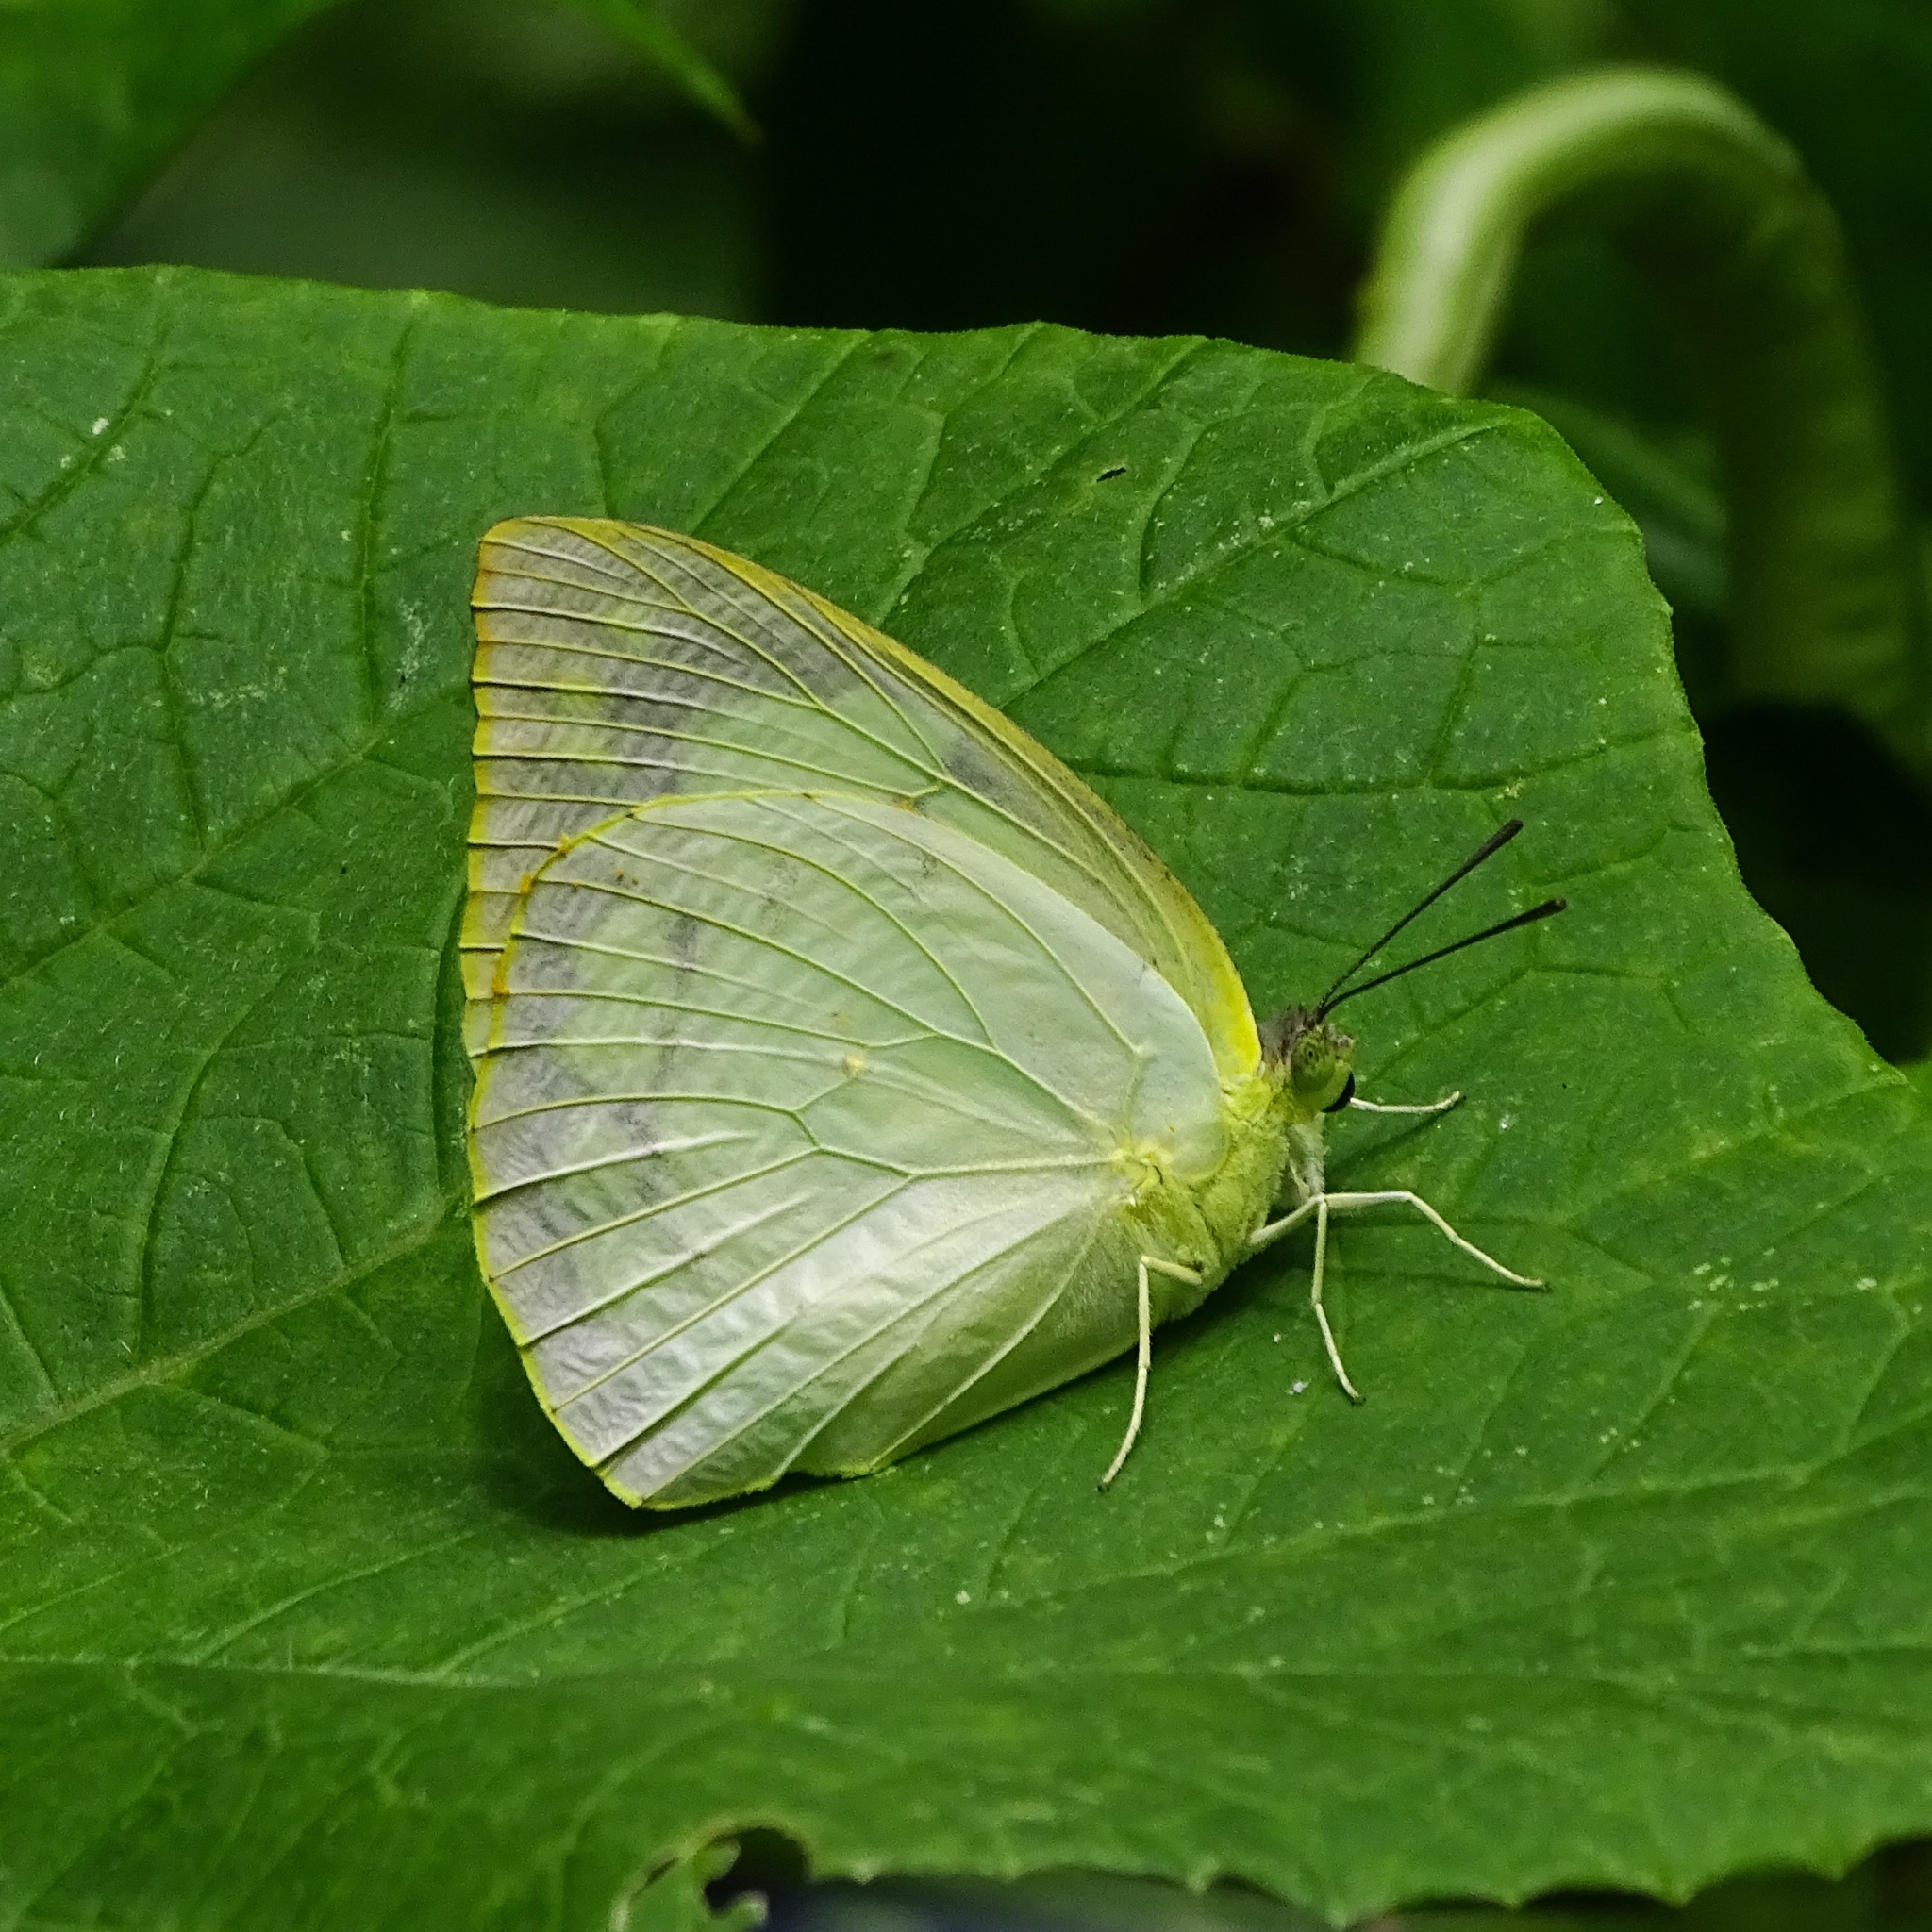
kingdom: Animalia
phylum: Arthropoda
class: Insecta
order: Lepidoptera
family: Pieridae
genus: Catopsilia
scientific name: Catopsilia pomona
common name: Common emigrant
